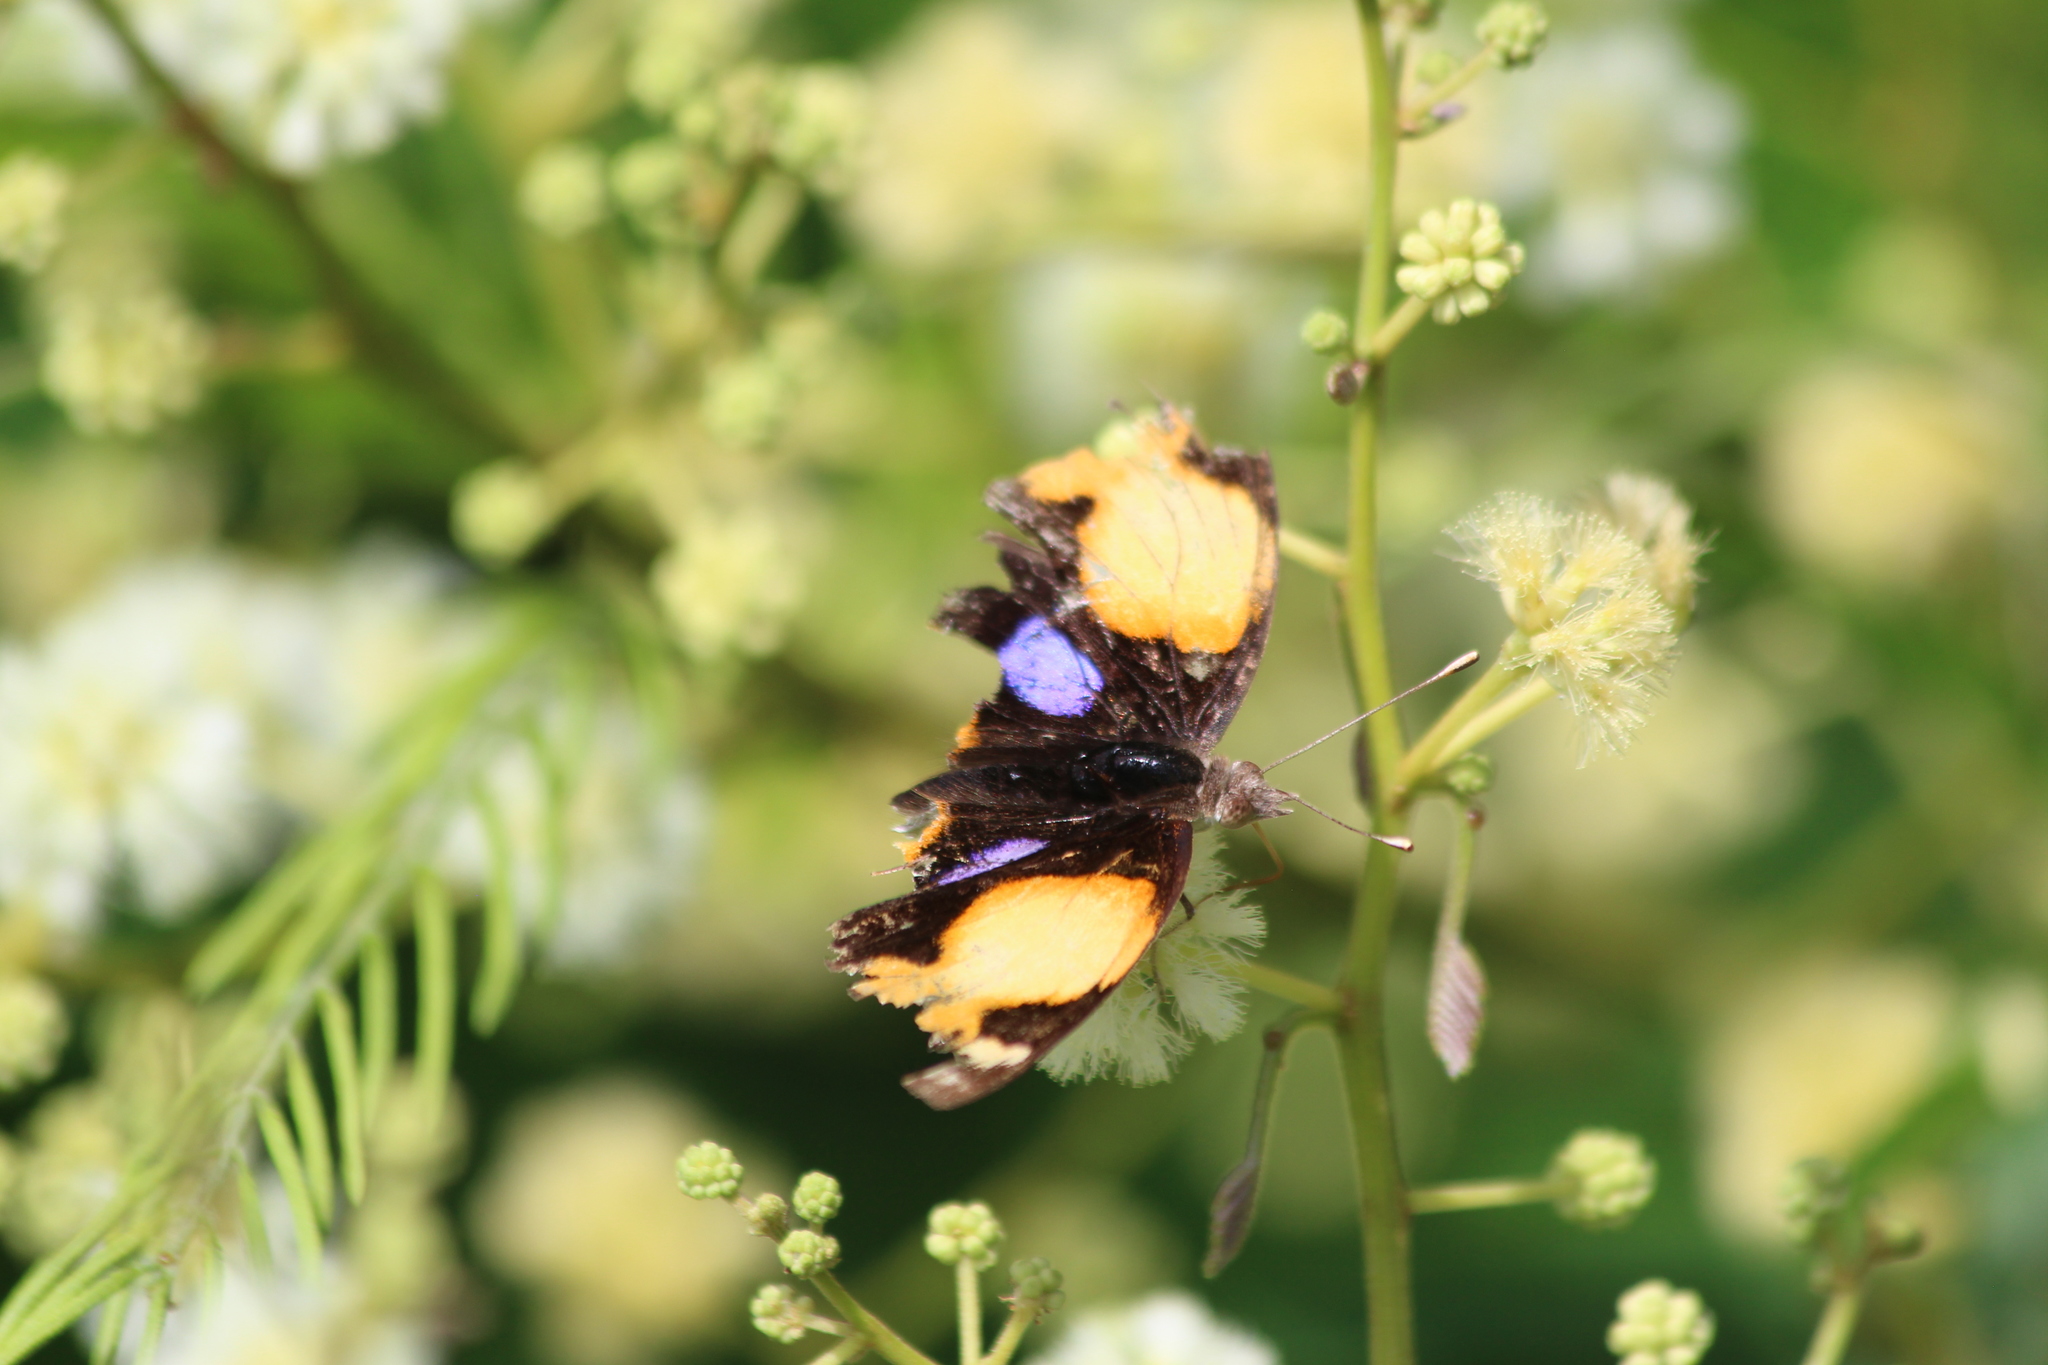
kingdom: Animalia
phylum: Arthropoda
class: Insecta
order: Lepidoptera
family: Nymphalidae
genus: Junonia
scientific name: Junonia hierta
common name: Yellow pansy
